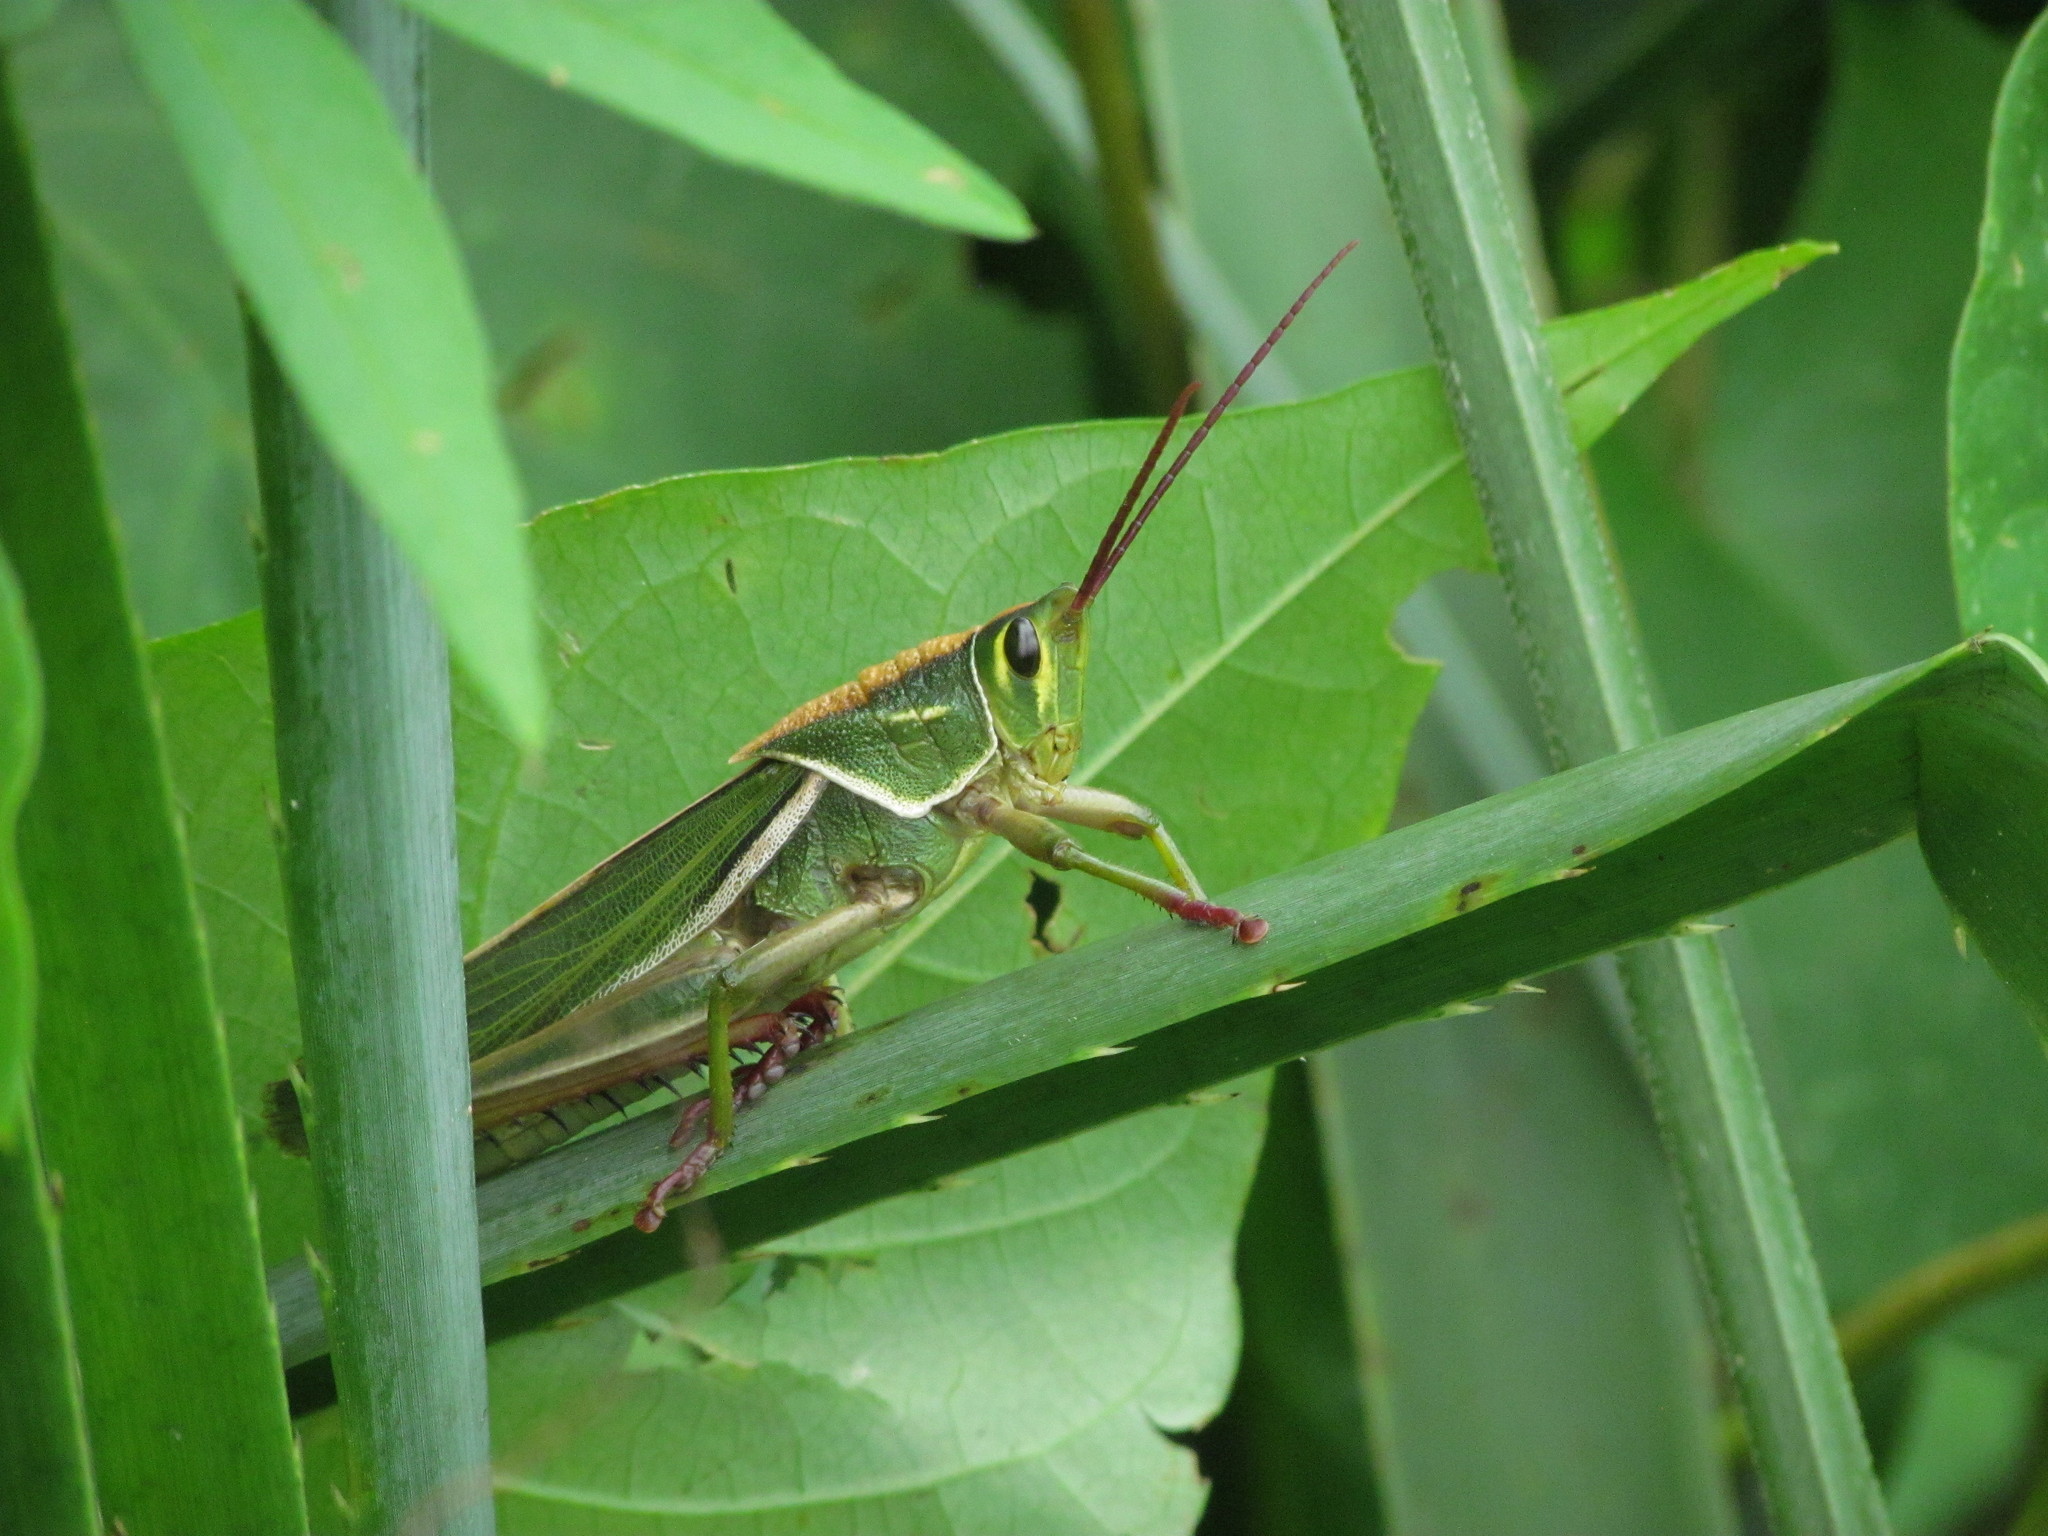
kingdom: Animalia
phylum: Arthropoda
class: Insecta
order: Orthoptera
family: Romaleidae
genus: Staleochlora
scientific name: Staleochlora viridicata
